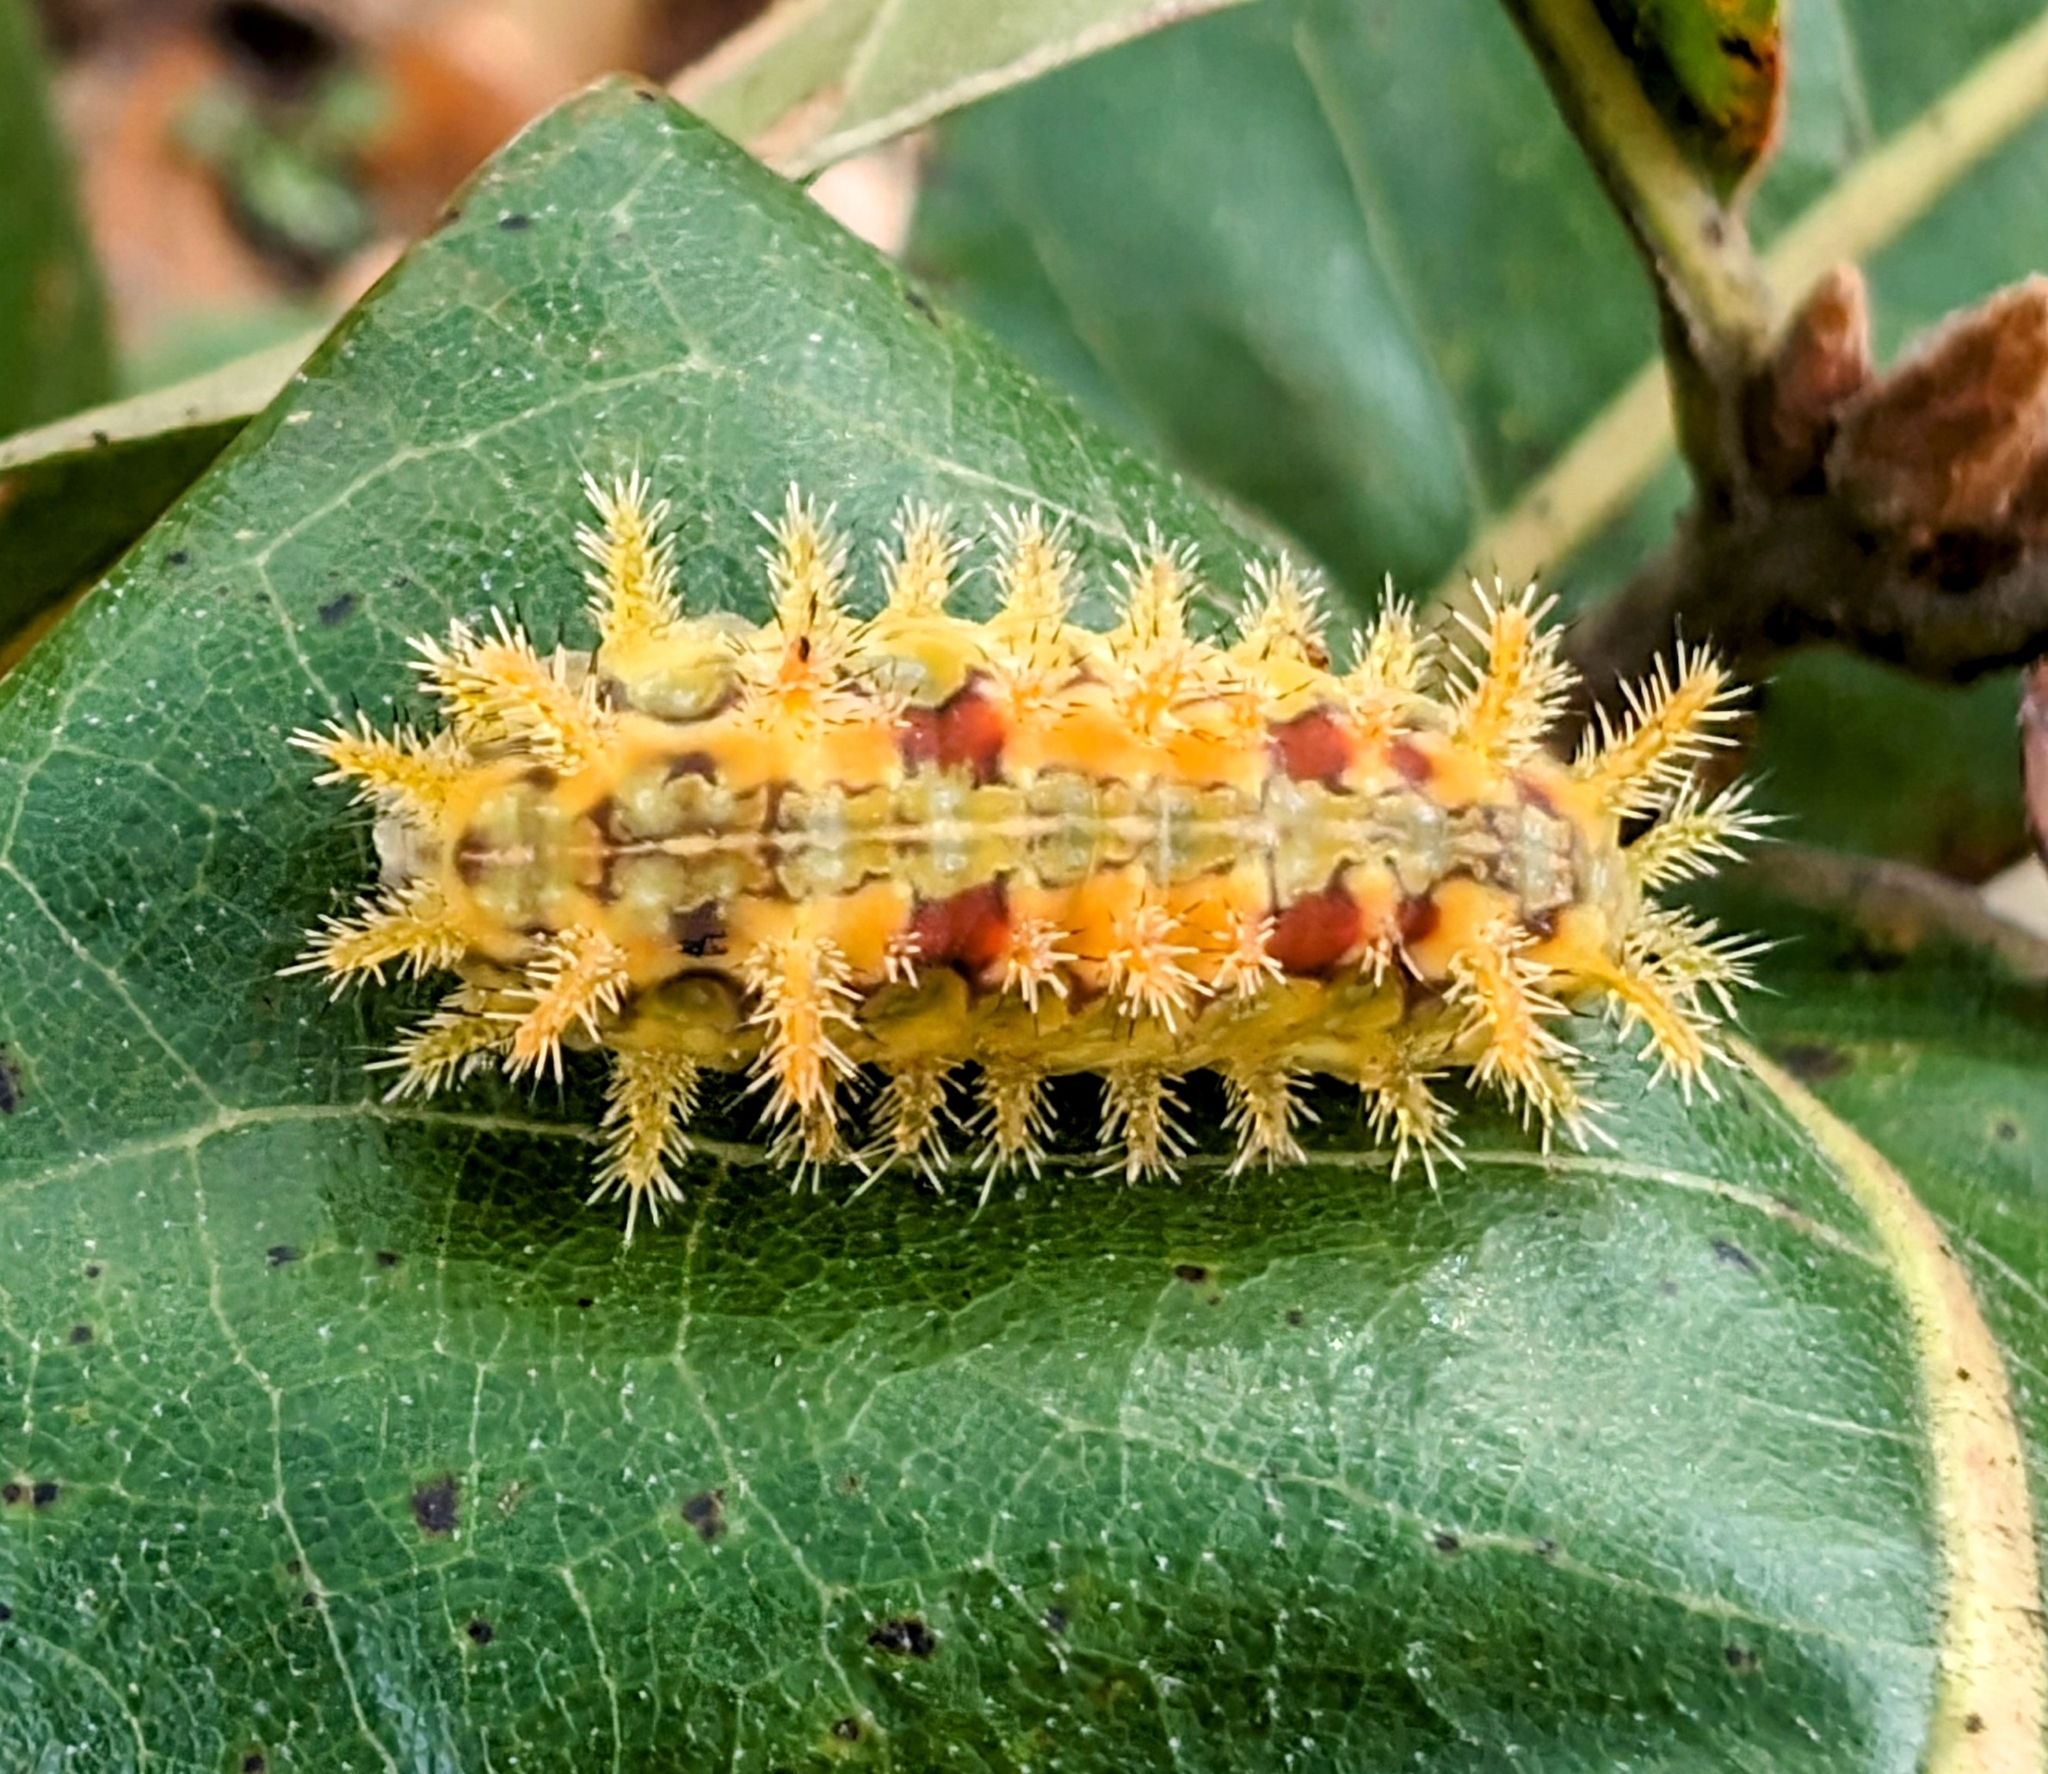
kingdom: Animalia
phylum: Arthropoda
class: Insecta
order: Lepidoptera
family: Limacodidae
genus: Euclea
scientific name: Euclea delphinii
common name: Spiny oak-slug moth
